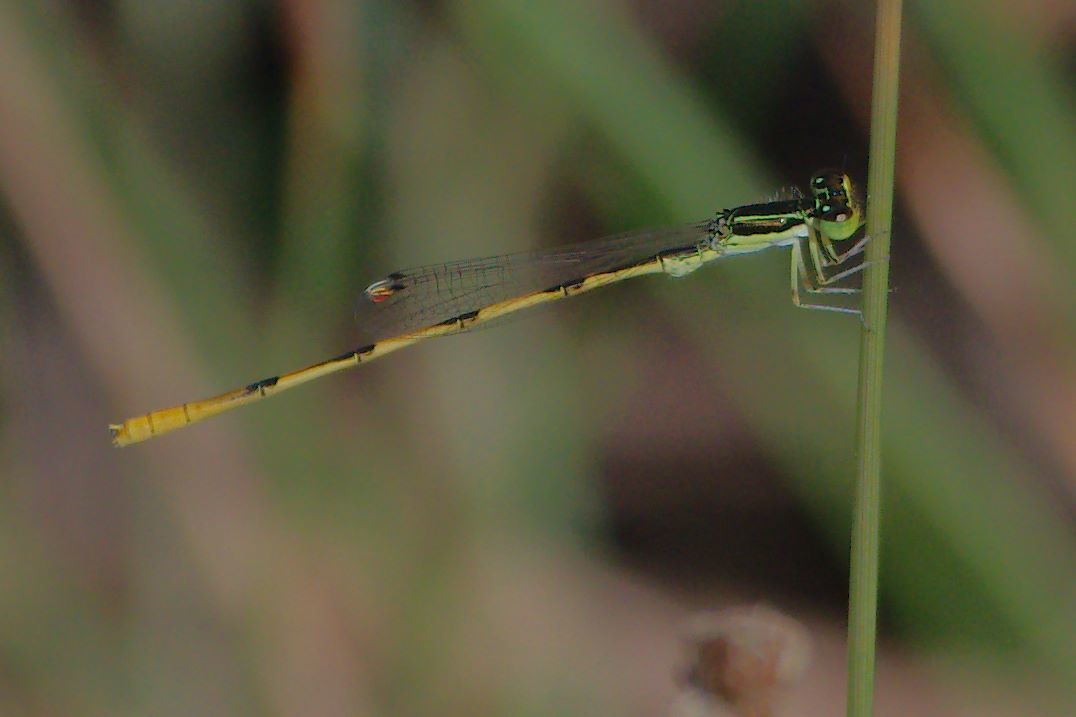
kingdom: Animalia
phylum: Arthropoda
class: Insecta
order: Odonata
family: Coenagrionidae
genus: Ischnura
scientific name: Ischnura hastata
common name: Citrine forktail
